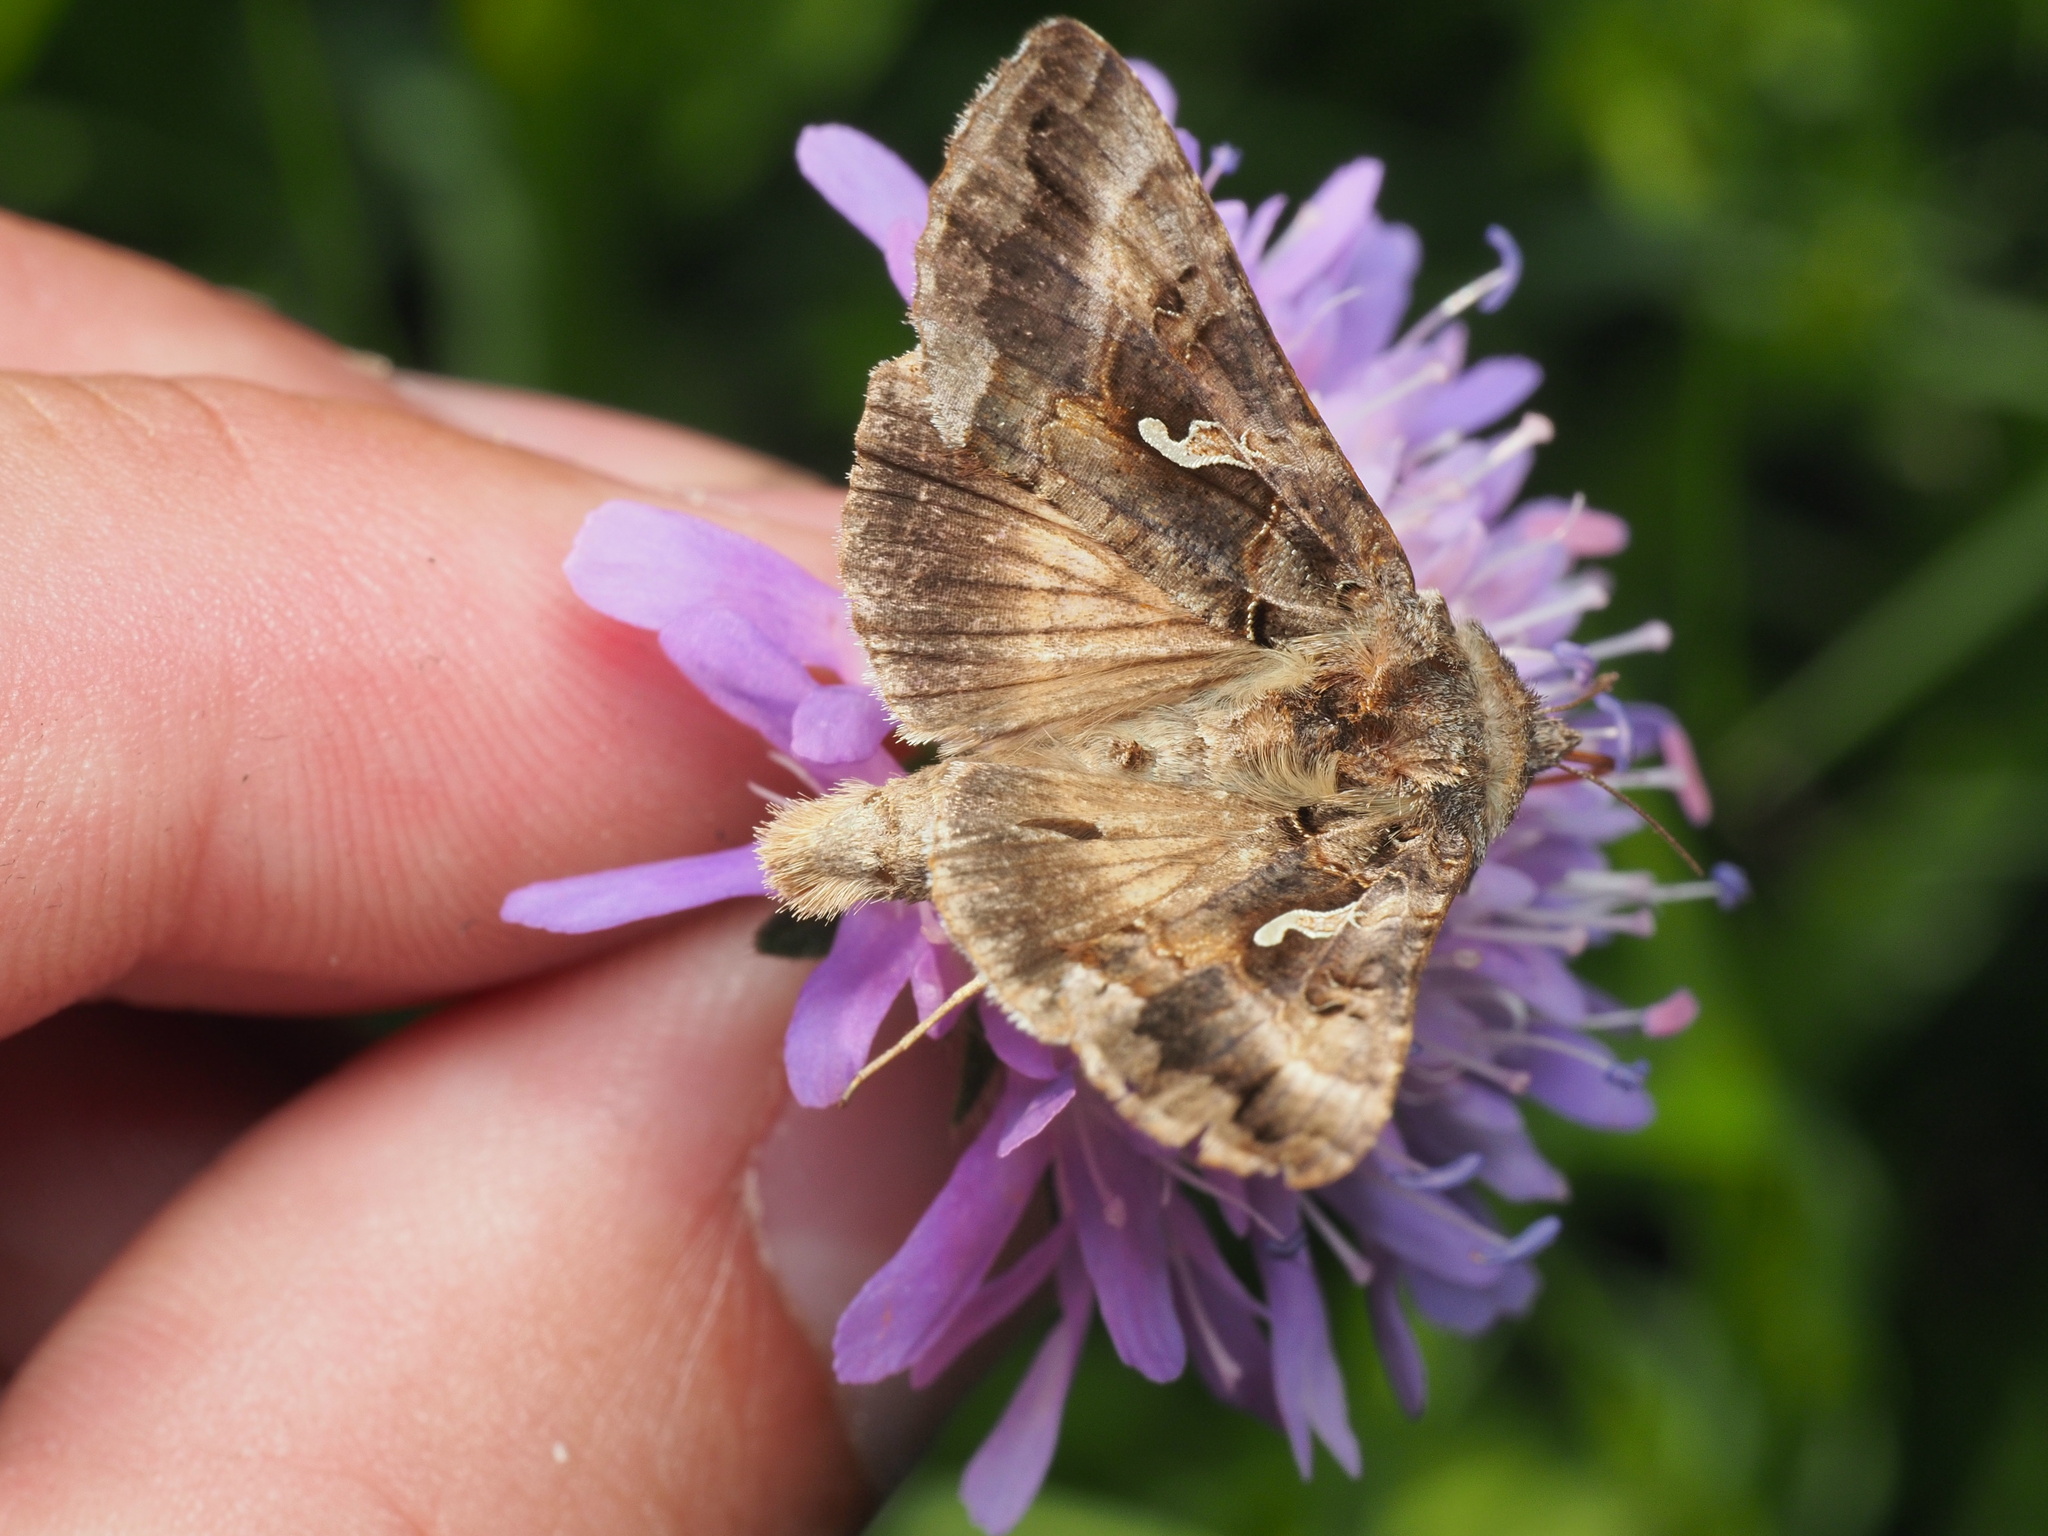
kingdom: Animalia
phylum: Arthropoda
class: Insecta
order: Lepidoptera
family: Noctuidae
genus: Autographa
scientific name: Autographa gamma
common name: Silver y
